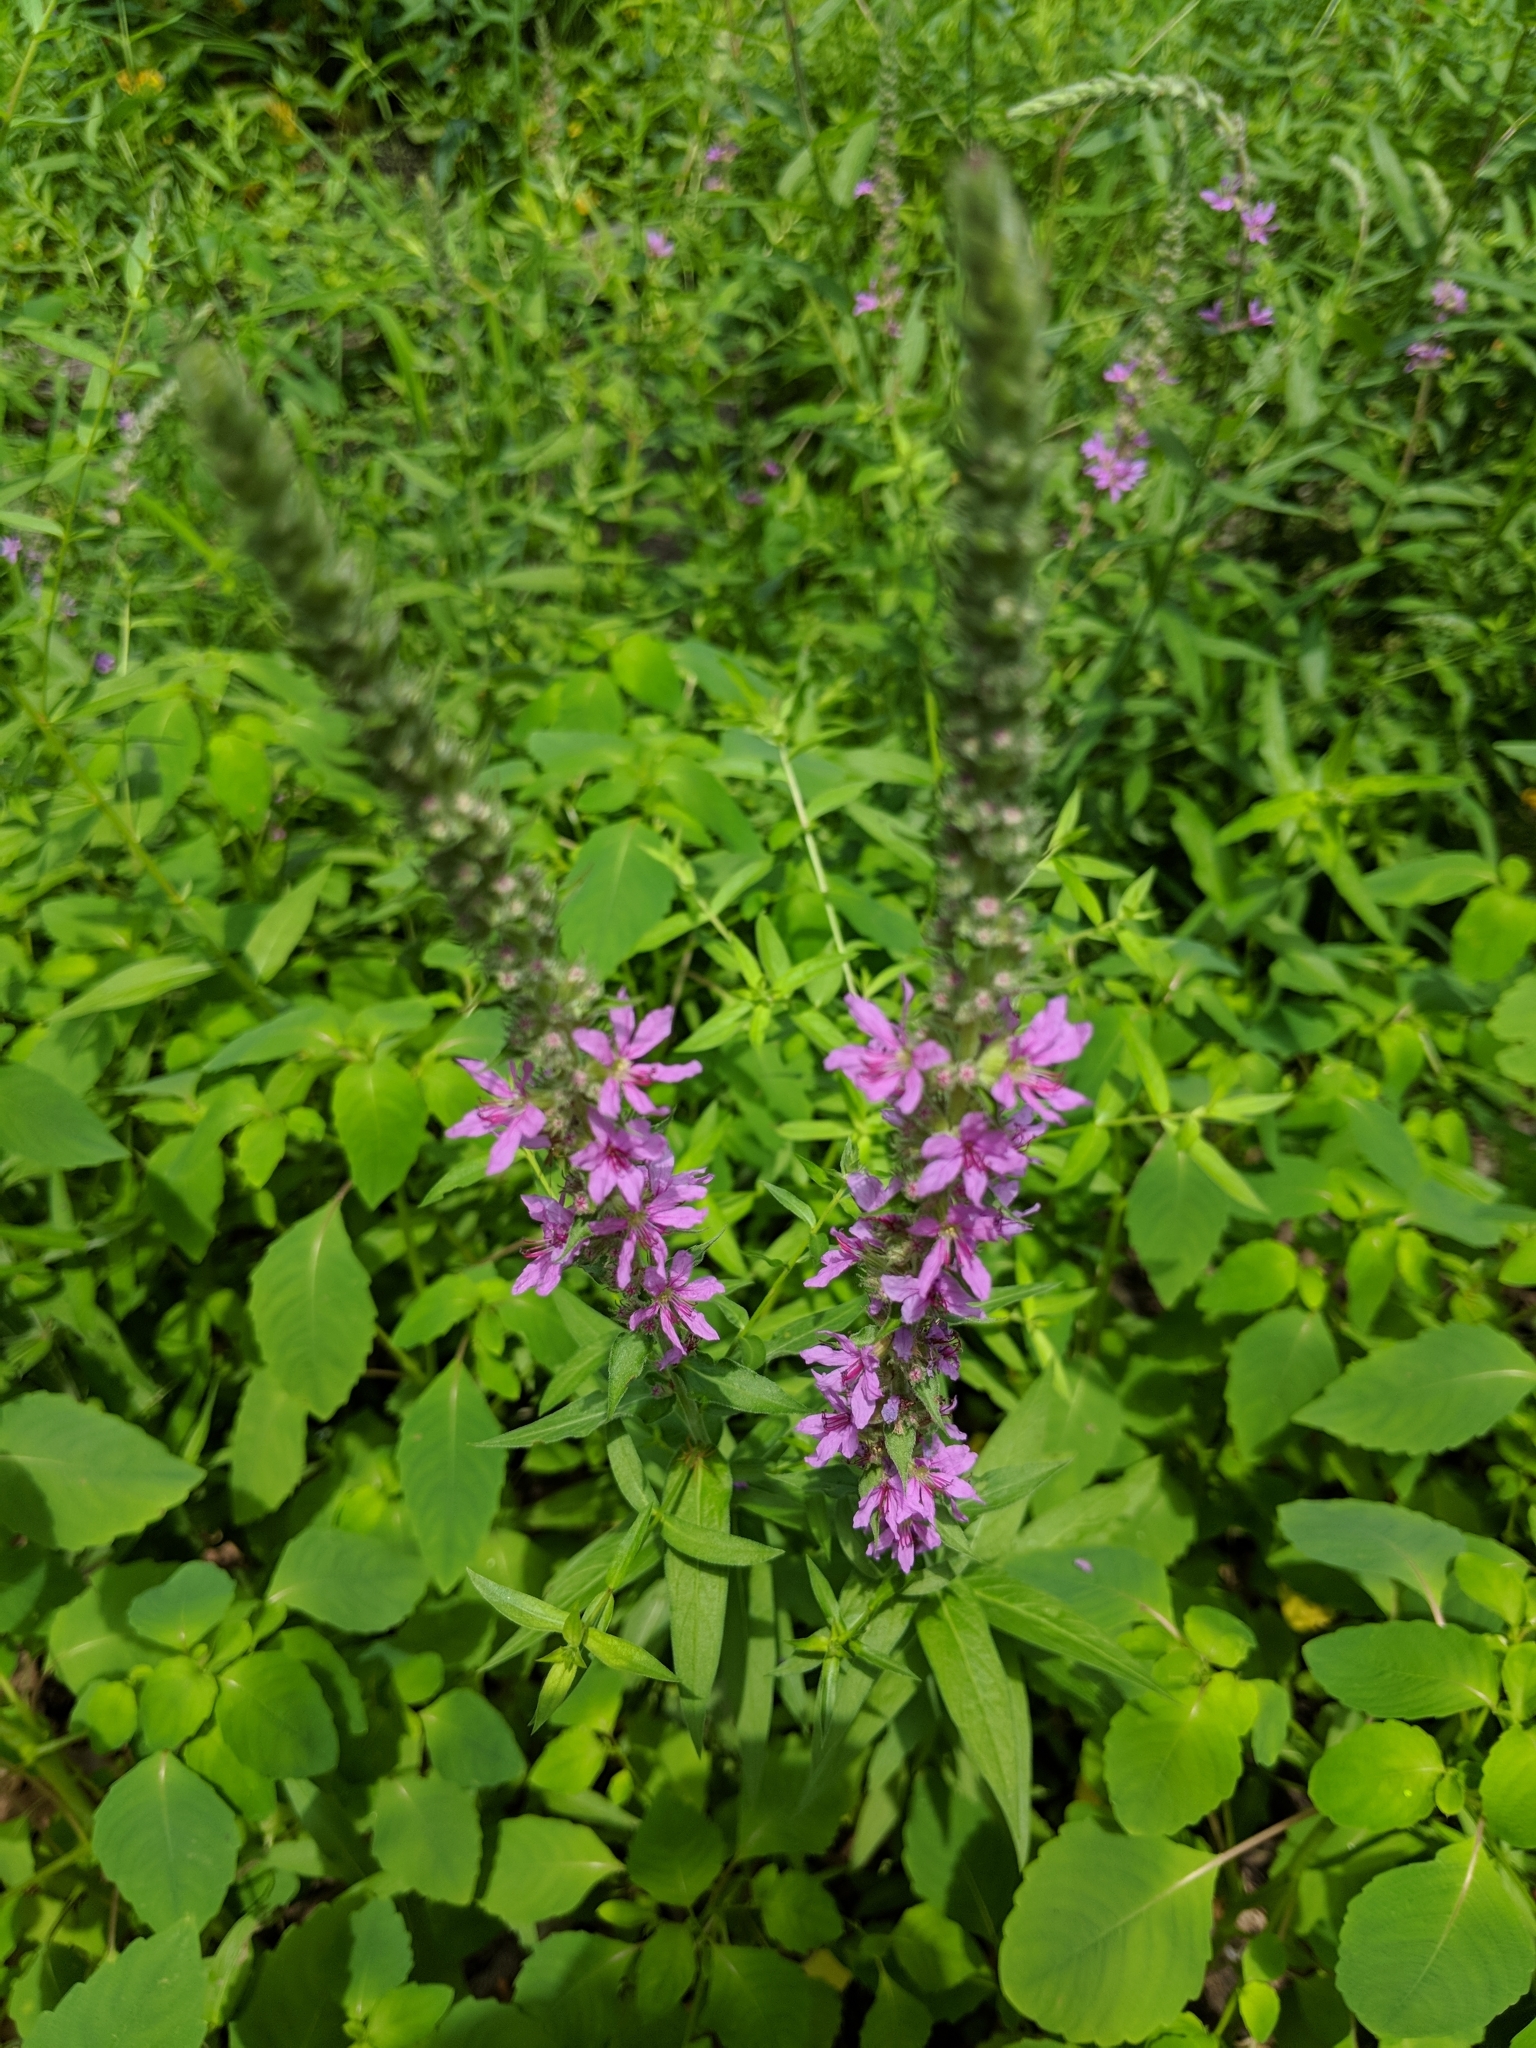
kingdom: Plantae
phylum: Tracheophyta
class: Magnoliopsida
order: Myrtales
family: Lythraceae
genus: Lythrum
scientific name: Lythrum salicaria
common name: Purple loosestrife
